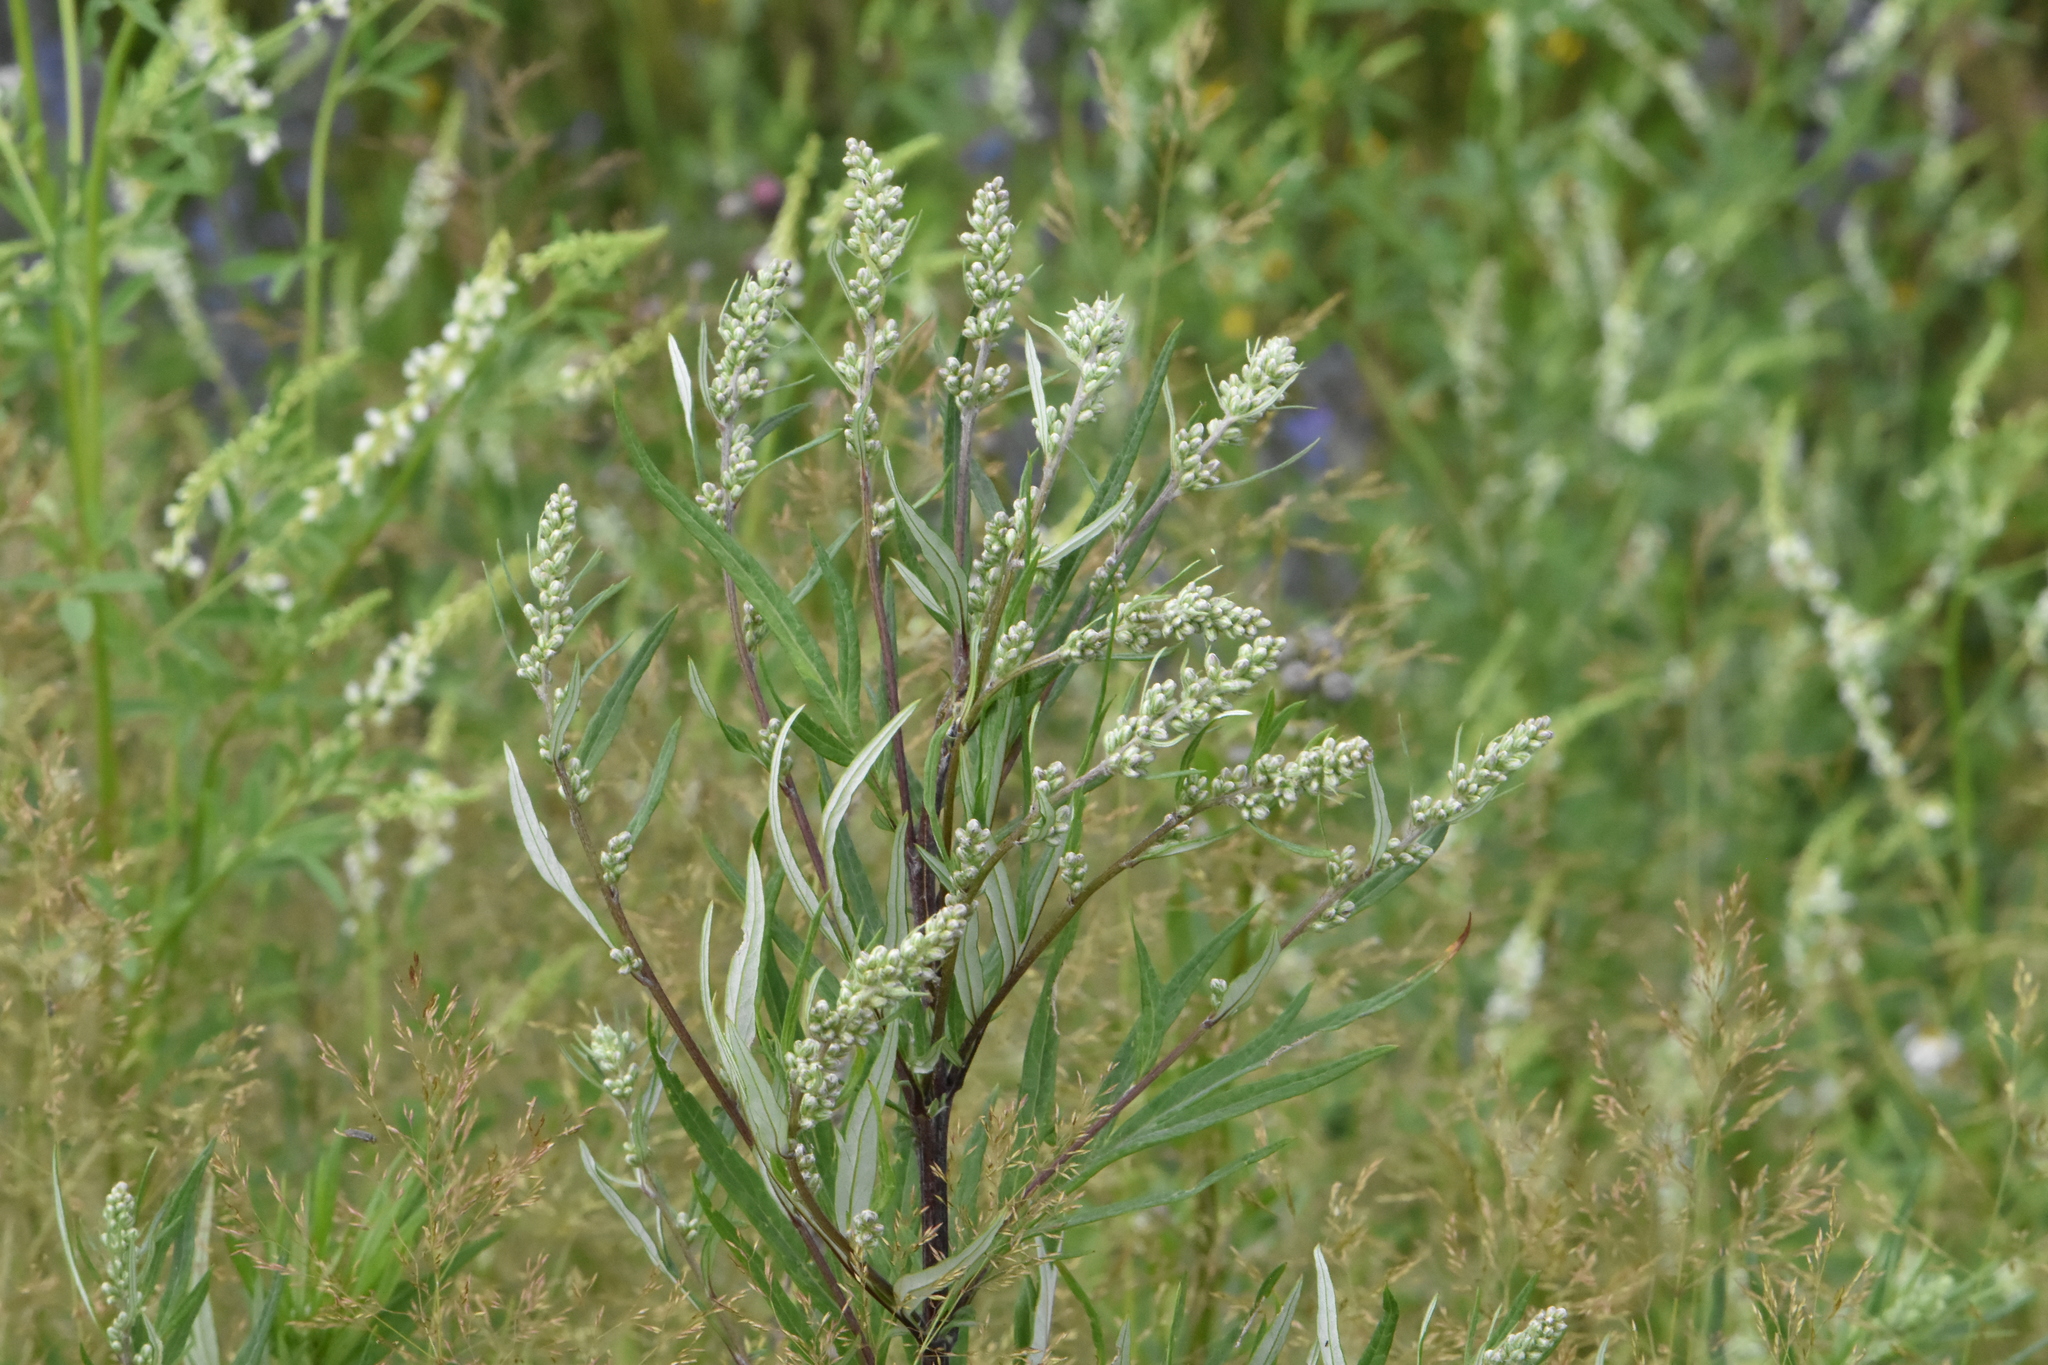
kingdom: Plantae
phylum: Tracheophyta
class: Magnoliopsida
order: Asterales
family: Asteraceae
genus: Artemisia
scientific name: Artemisia vulgaris
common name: Mugwort
